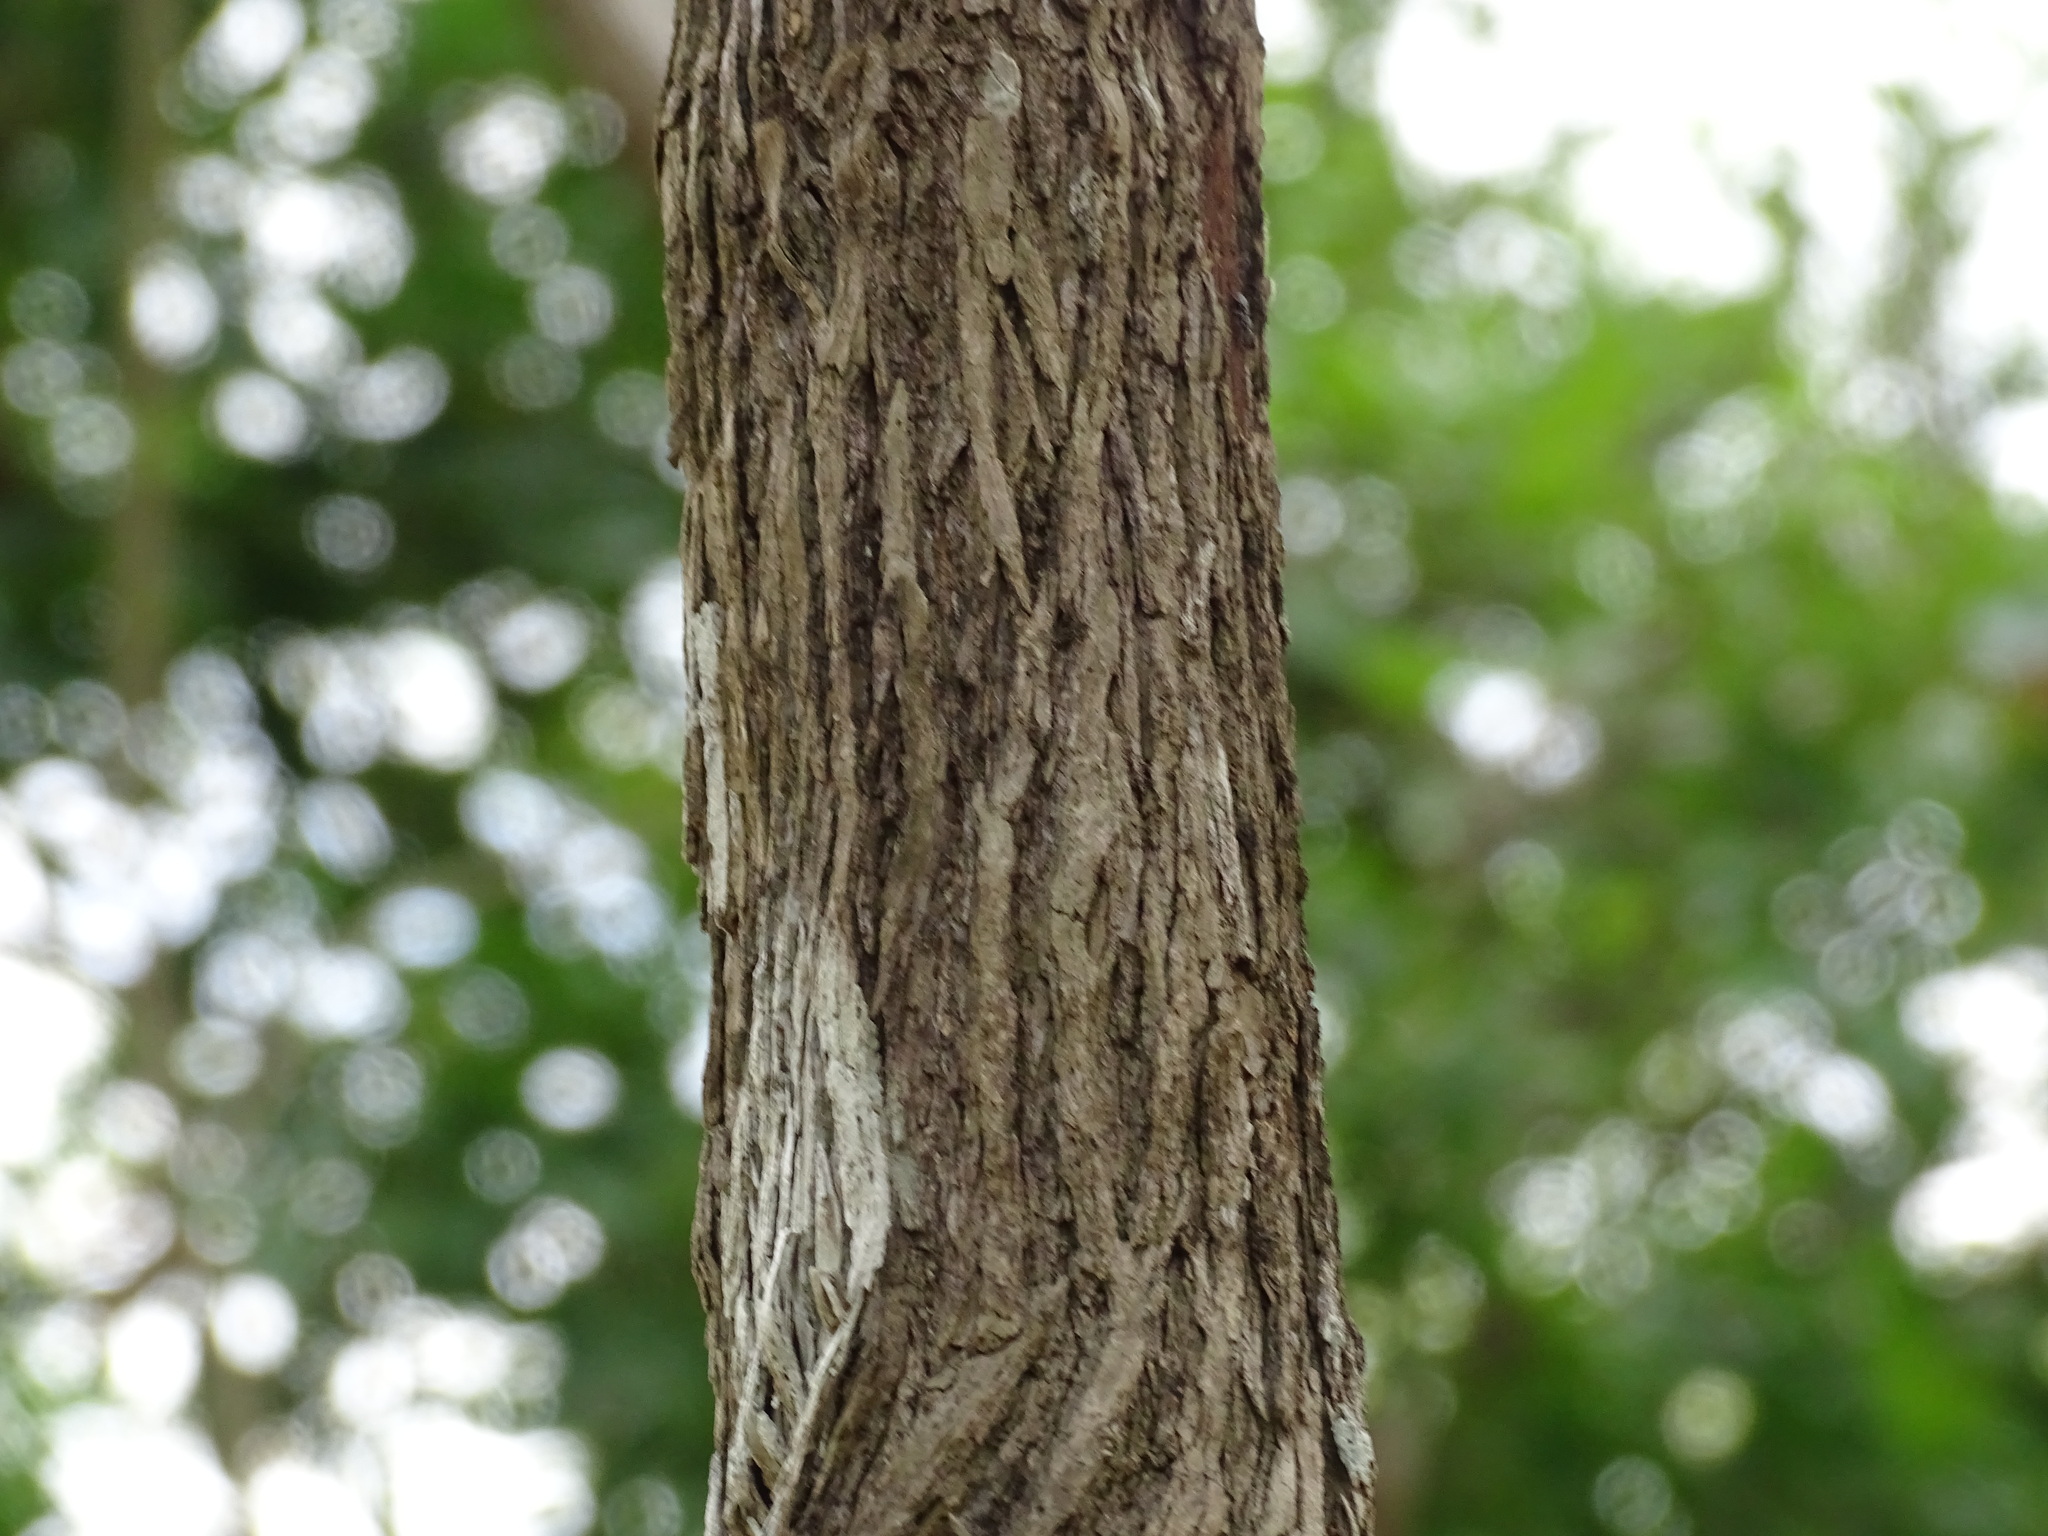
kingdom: Plantae
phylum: Tracheophyta
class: Magnoliopsida
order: Malpighiales
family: Malpighiaceae
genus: Bunchosia
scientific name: Bunchosia swartziana
